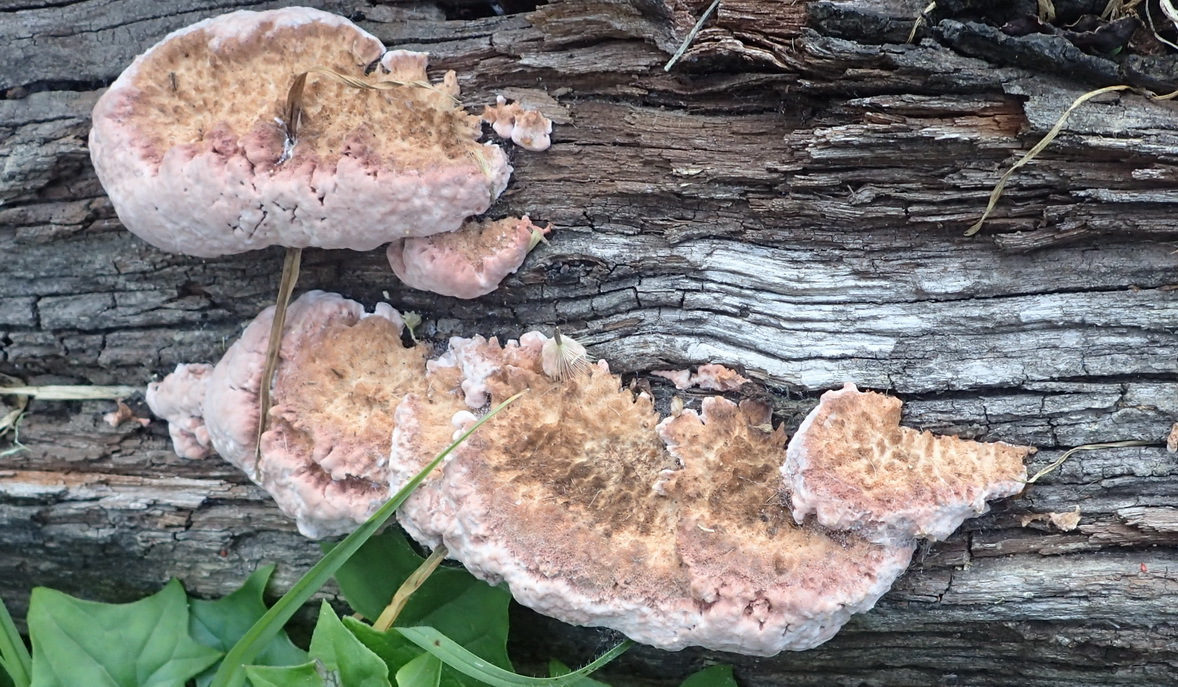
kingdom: Fungi
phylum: Basidiomycota
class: Agaricomycetes
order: Polyporales
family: Fomitopsidaceae
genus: Rhodofomitopsis
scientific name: Rhodofomitopsis lilacinogilva
